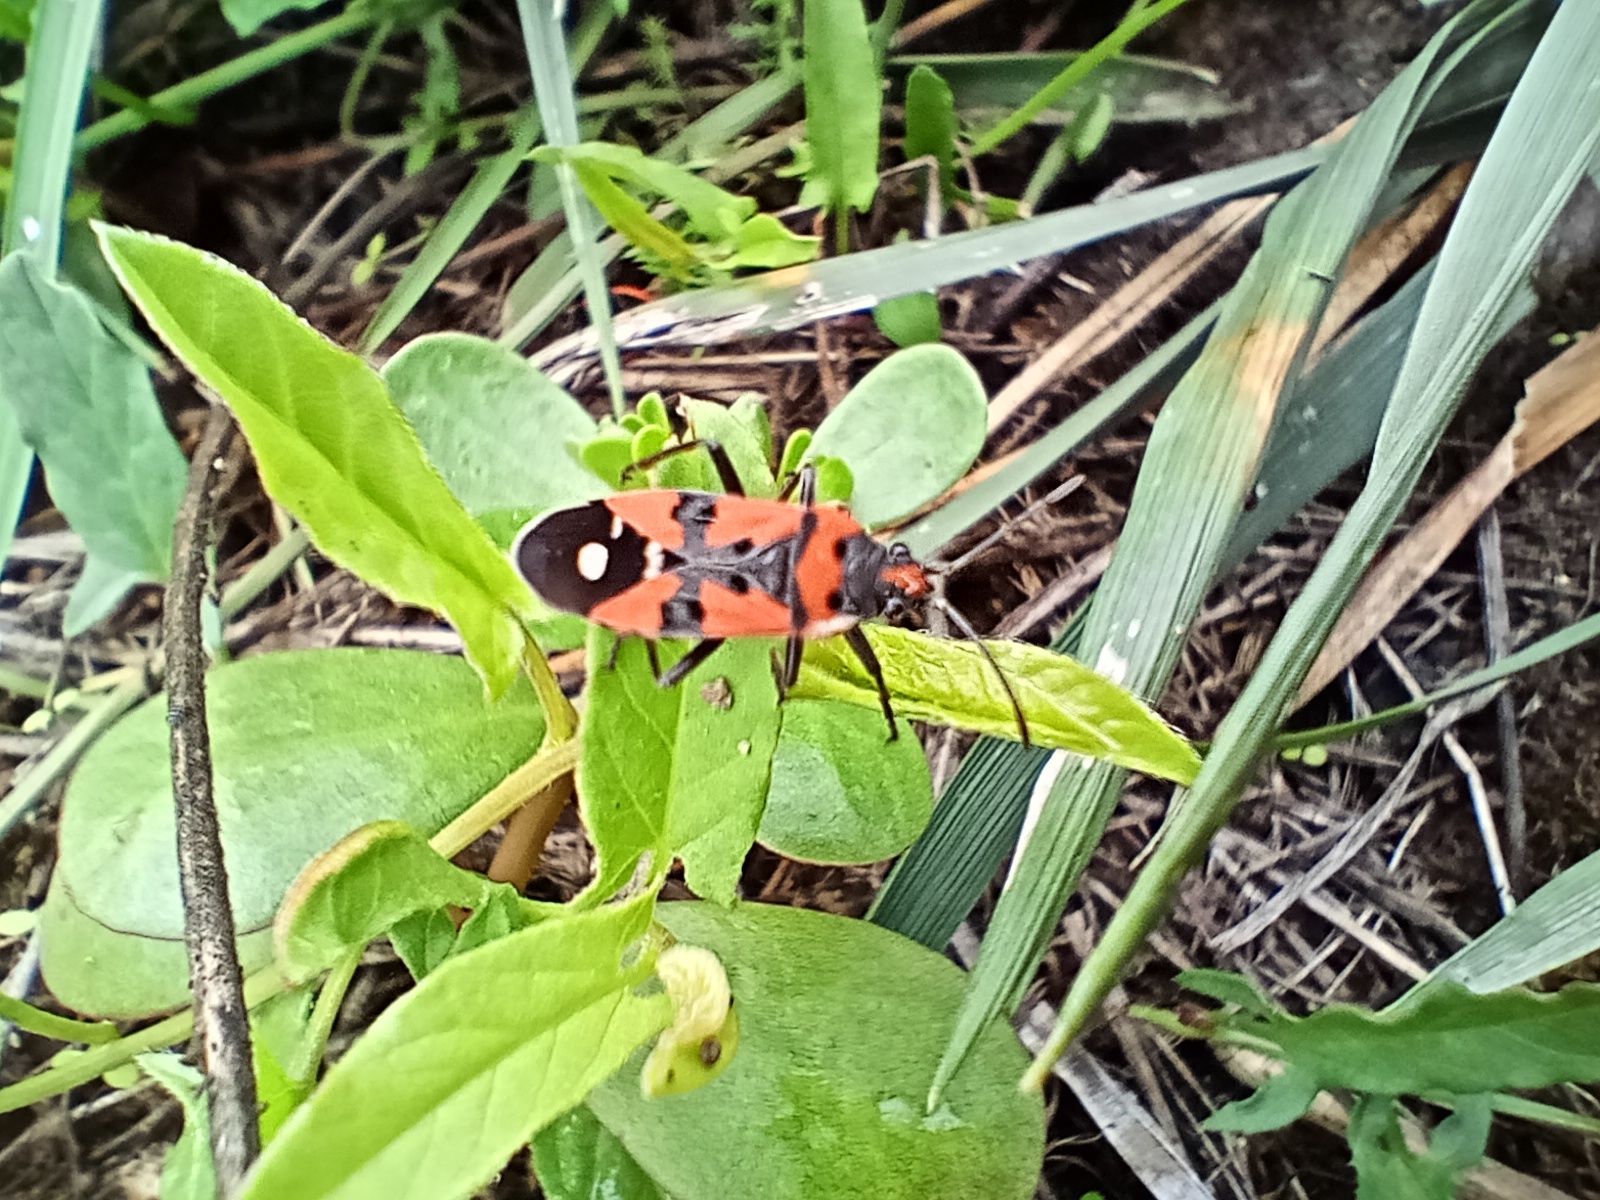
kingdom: Animalia
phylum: Arthropoda
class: Insecta
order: Hemiptera
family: Lygaeidae
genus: Lygaeus
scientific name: Lygaeus equestris
